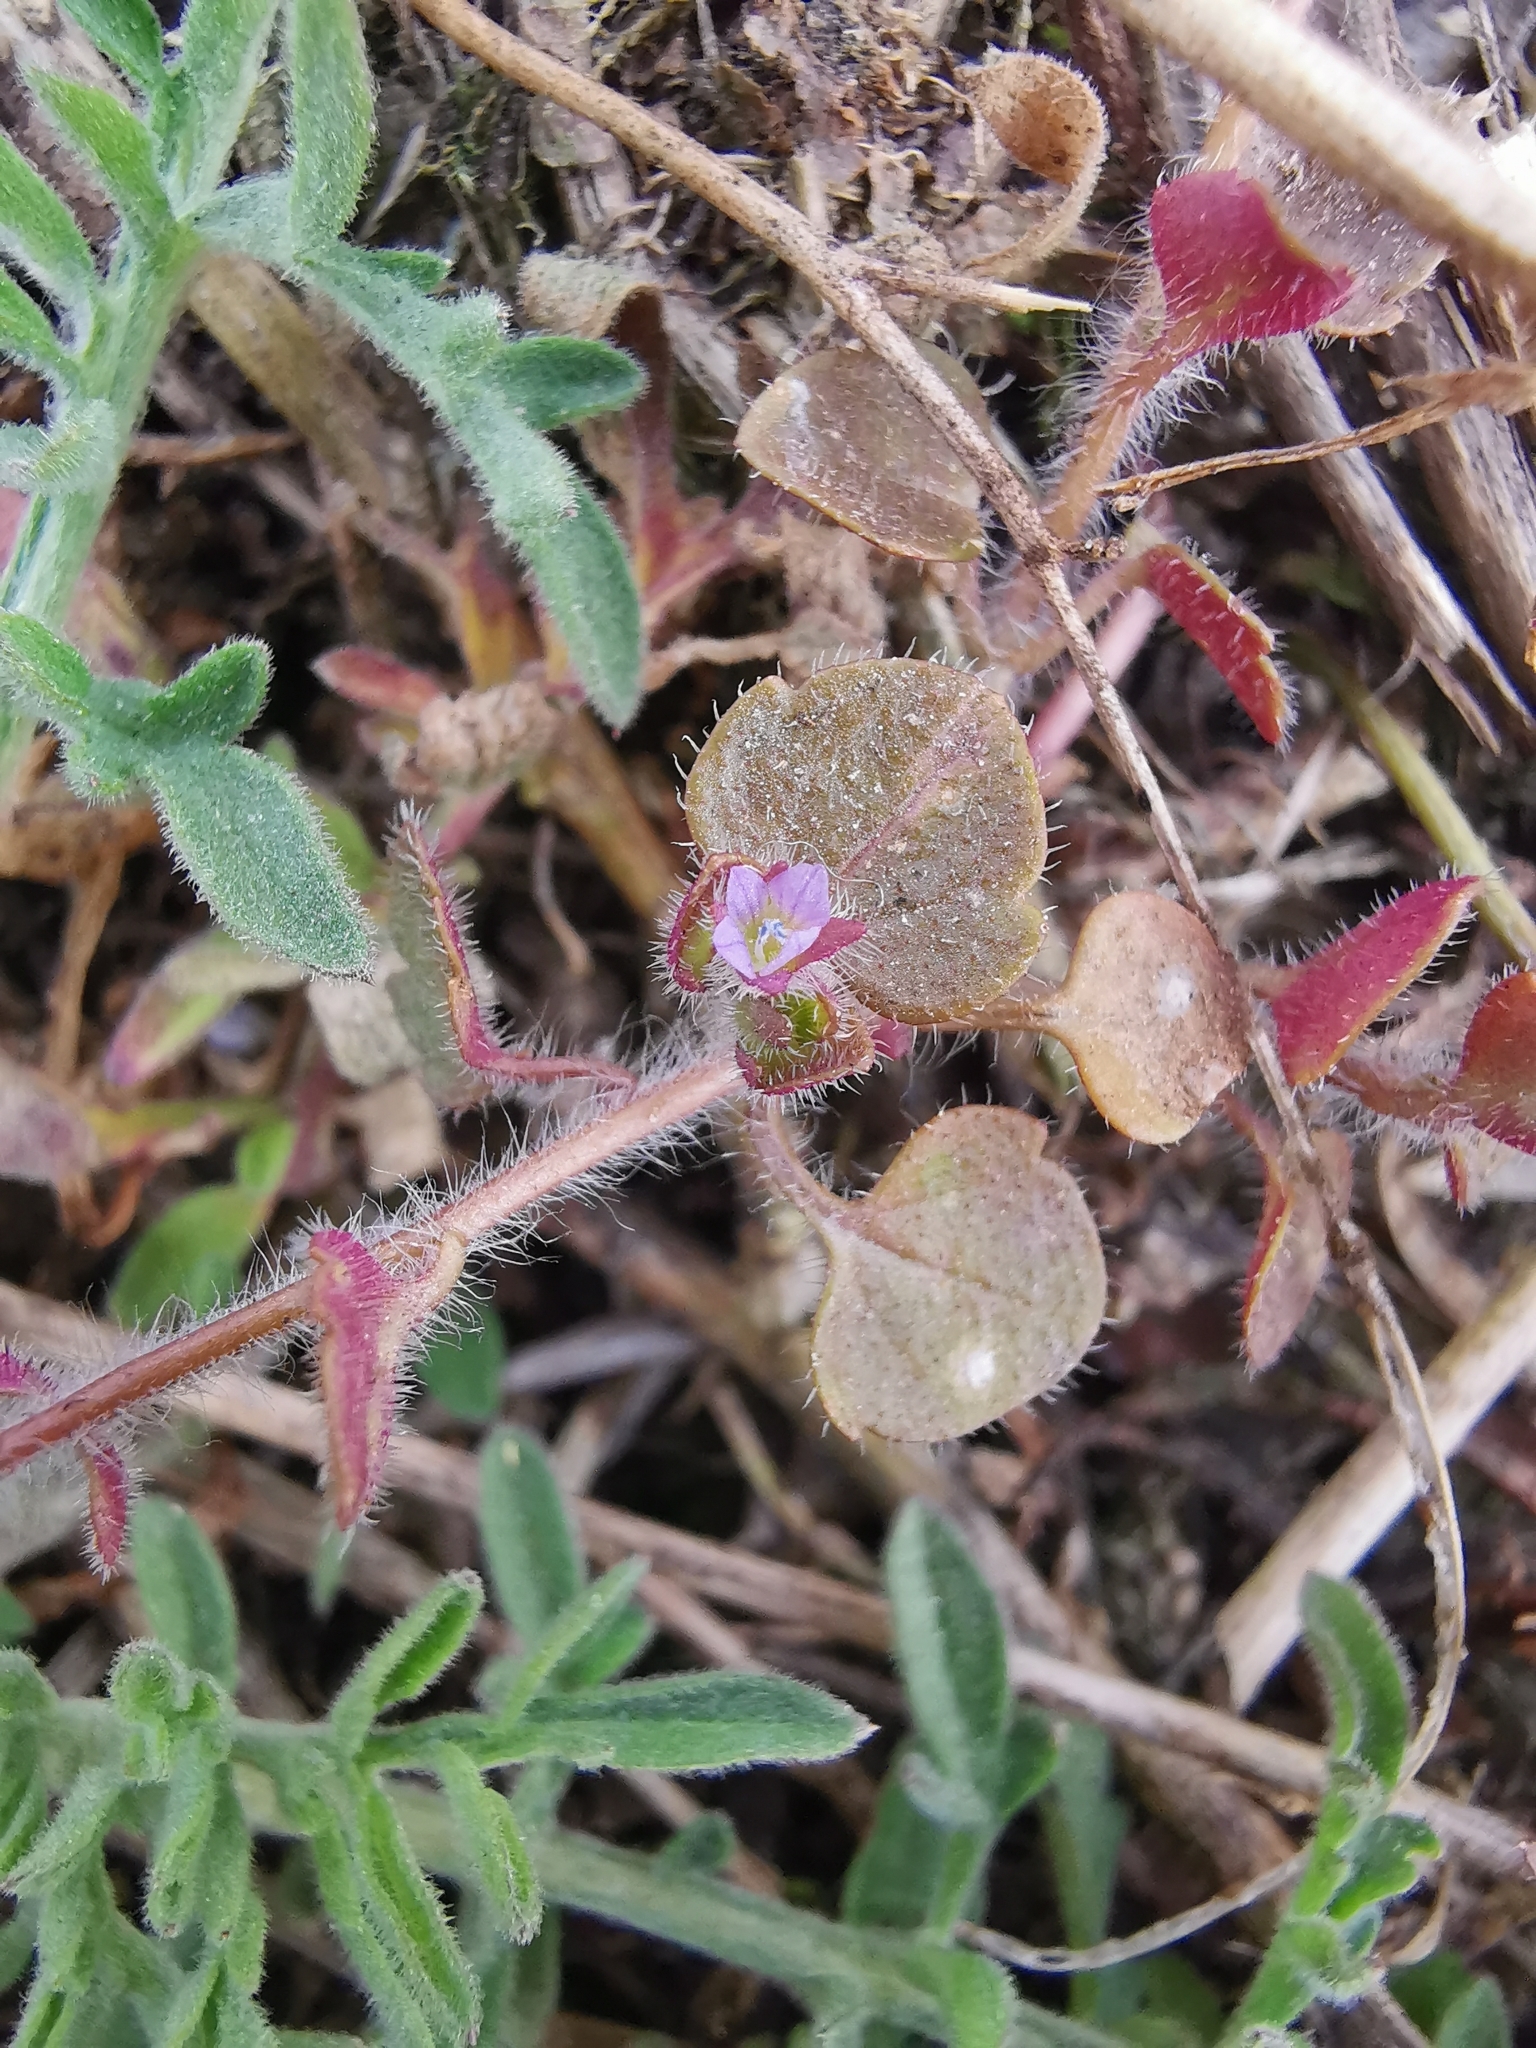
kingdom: Plantae
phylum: Tracheophyta
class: Magnoliopsida
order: Lamiales
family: Plantaginaceae
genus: Veronica
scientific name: Veronica sublobata
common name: False ivy-leaved speedwell
